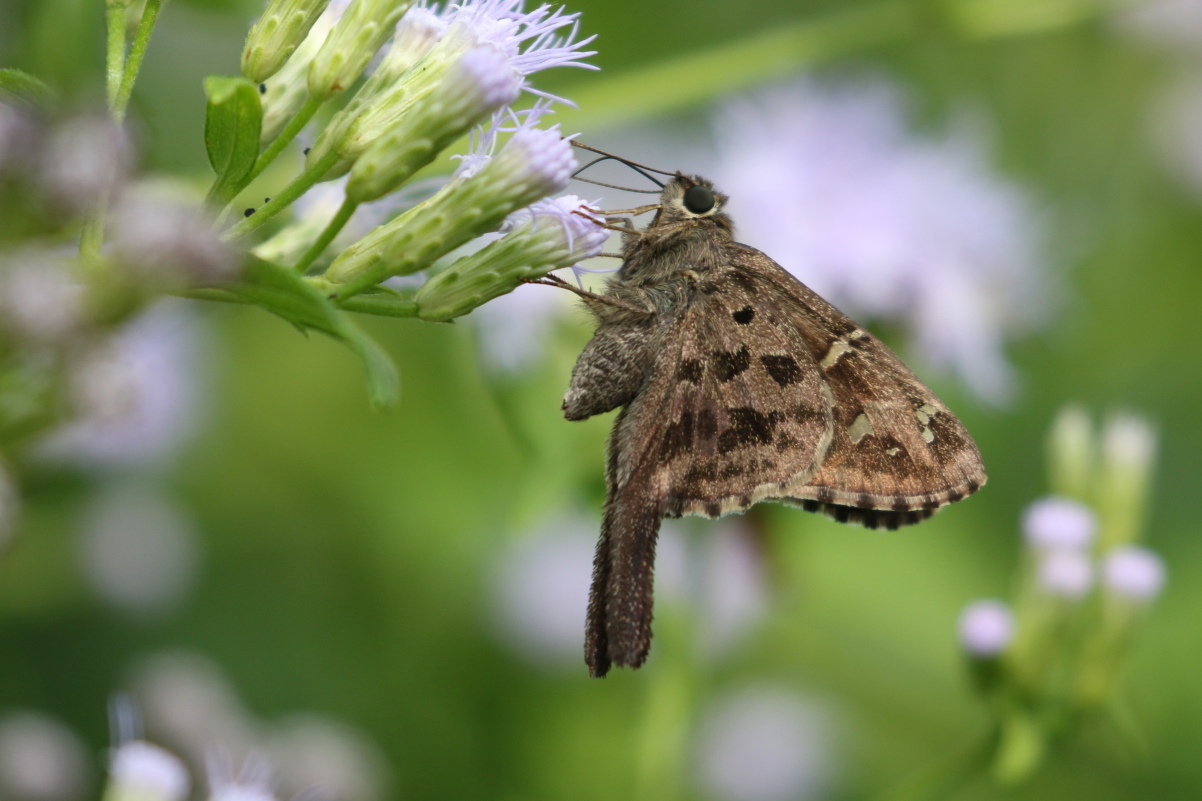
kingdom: Animalia
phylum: Arthropoda
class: Insecta
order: Lepidoptera
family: Hesperiidae
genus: Thorybes
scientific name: Thorybes
